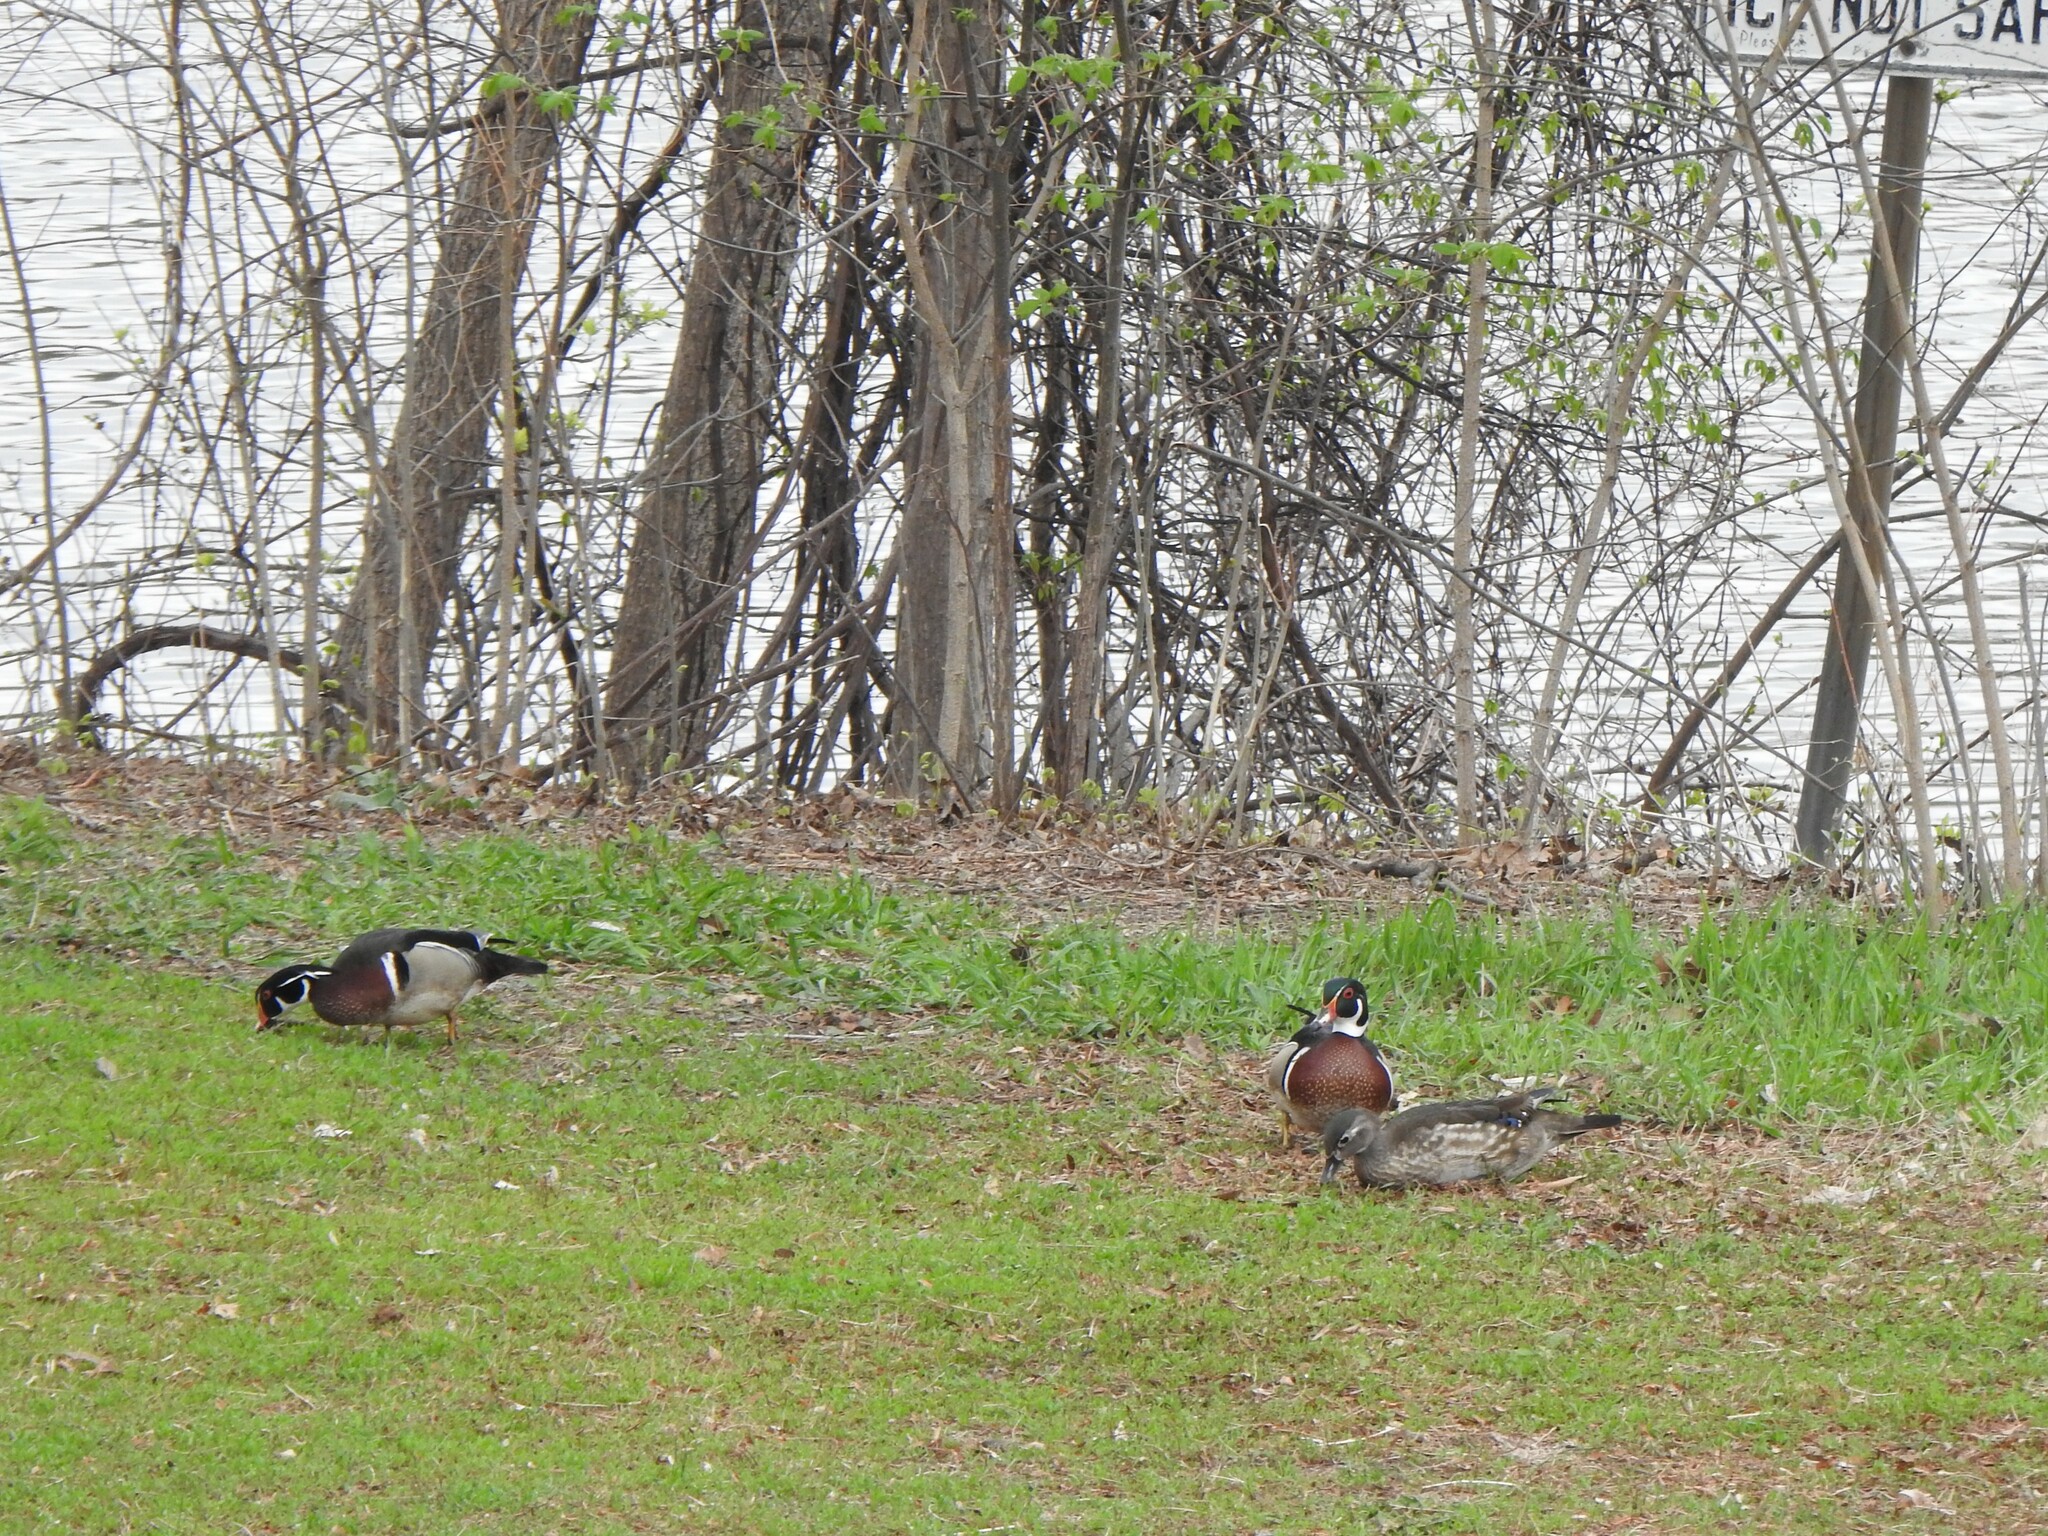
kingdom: Animalia
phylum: Chordata
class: Aves
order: Anseriformes
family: Anatidae
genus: Aix
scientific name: Aix sponsa
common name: Wood duck
